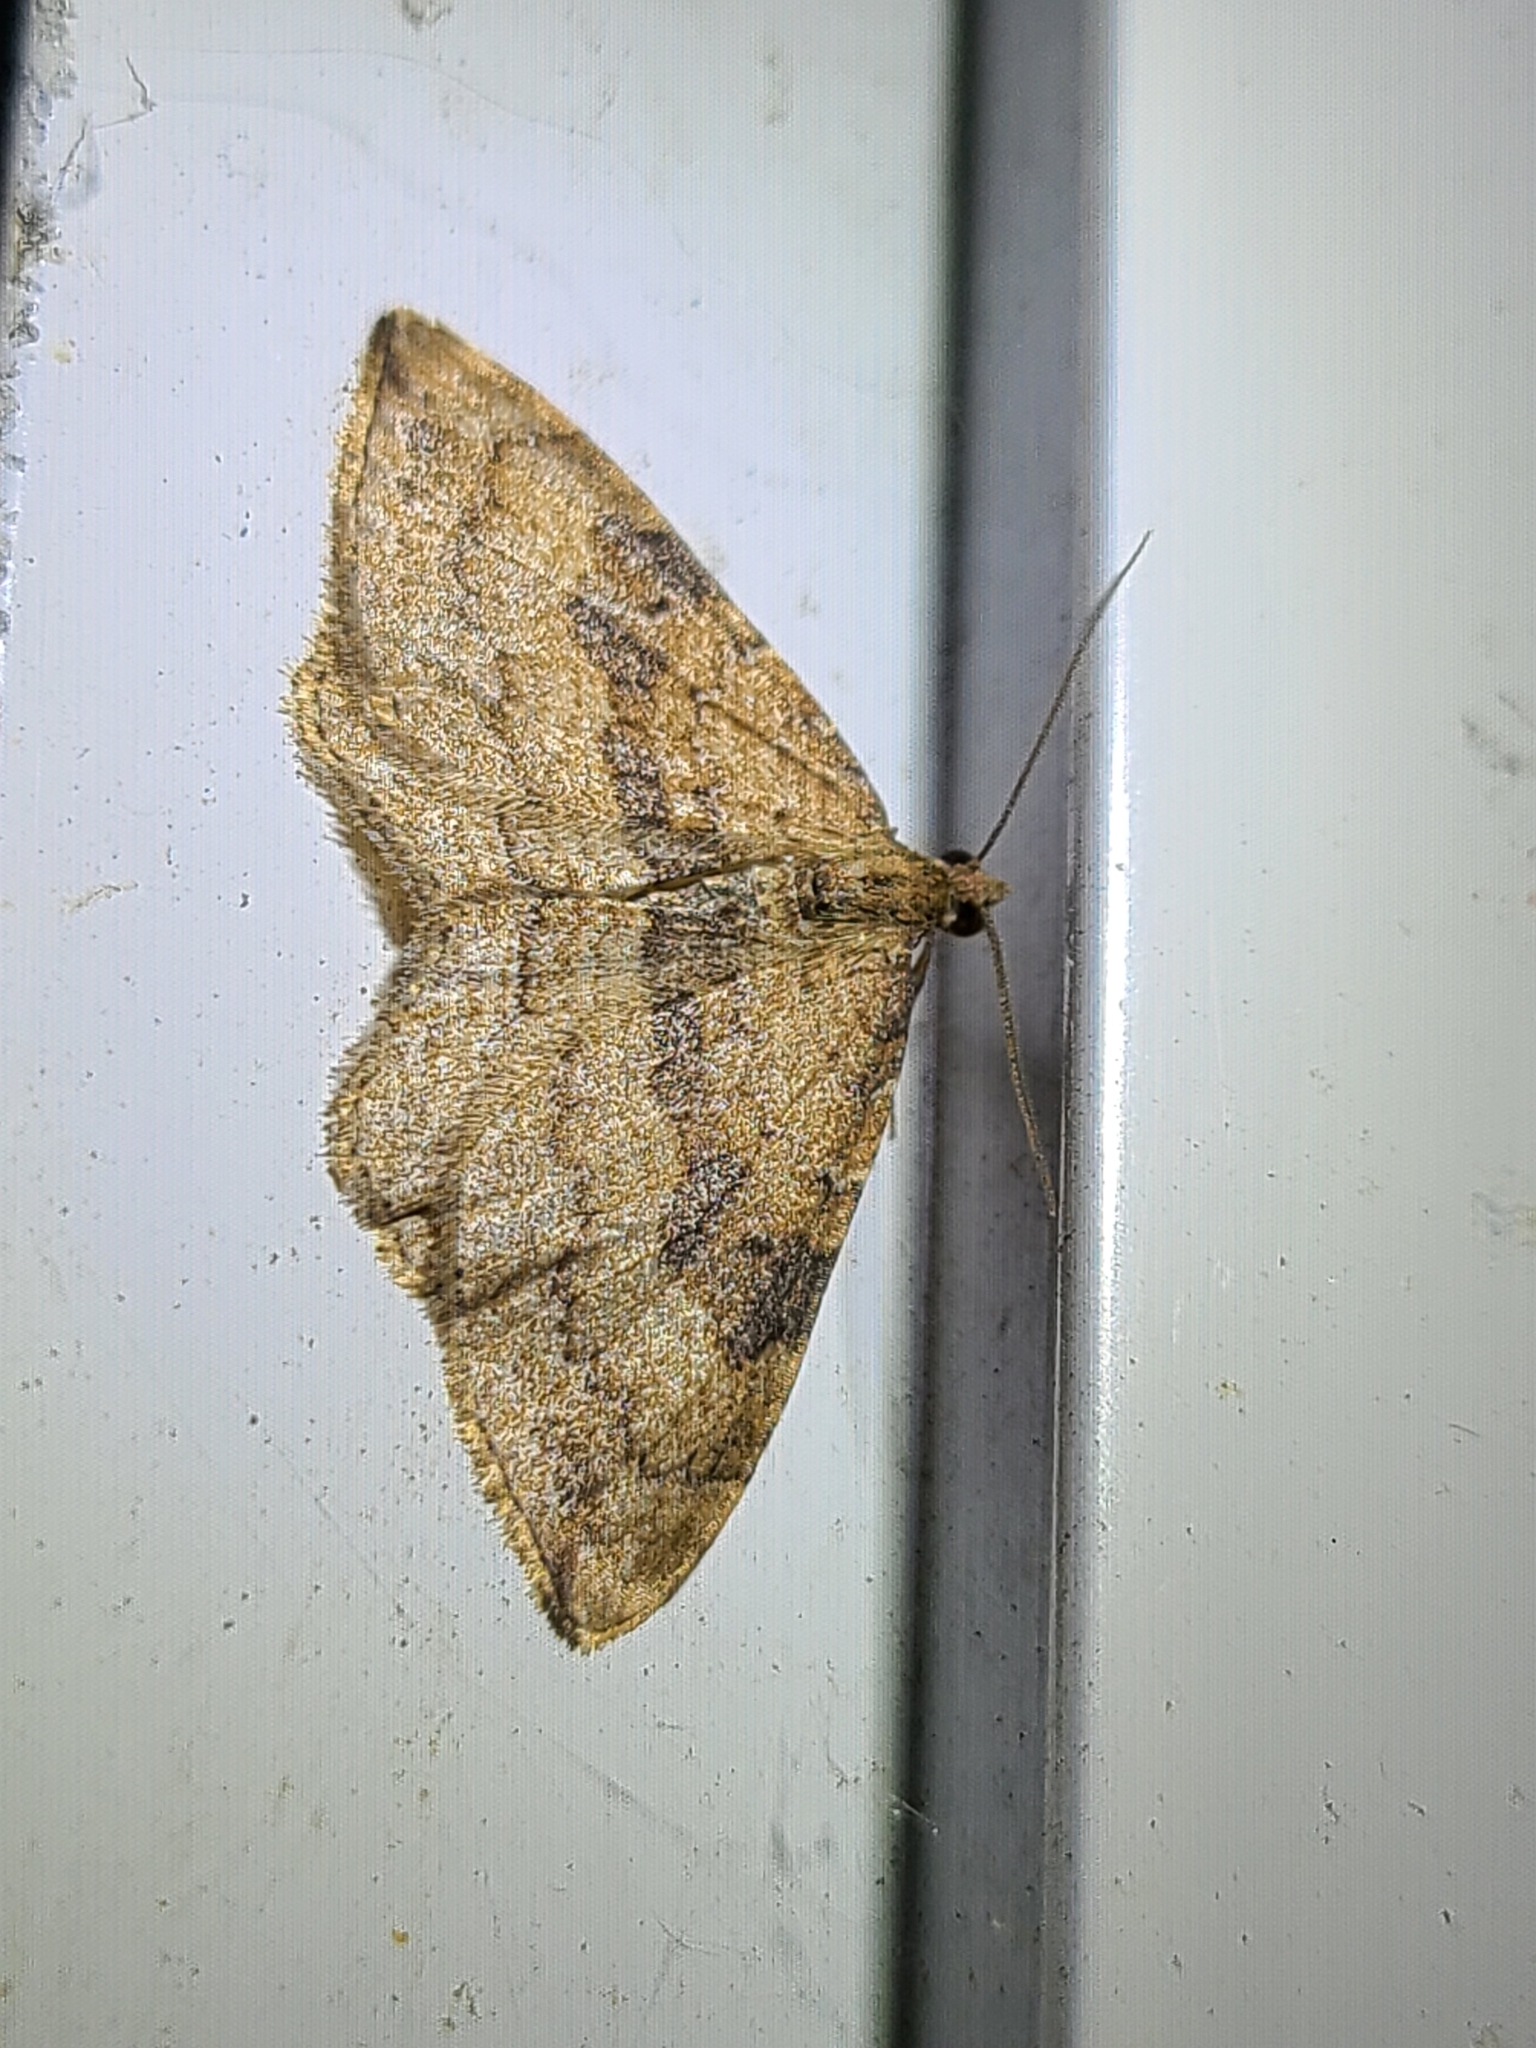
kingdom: Animalia
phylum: Arthropoda
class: Insecta
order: Lepidoptera
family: Geometridae
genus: Orthonama
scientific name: Orthonama obstipata
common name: The gem
